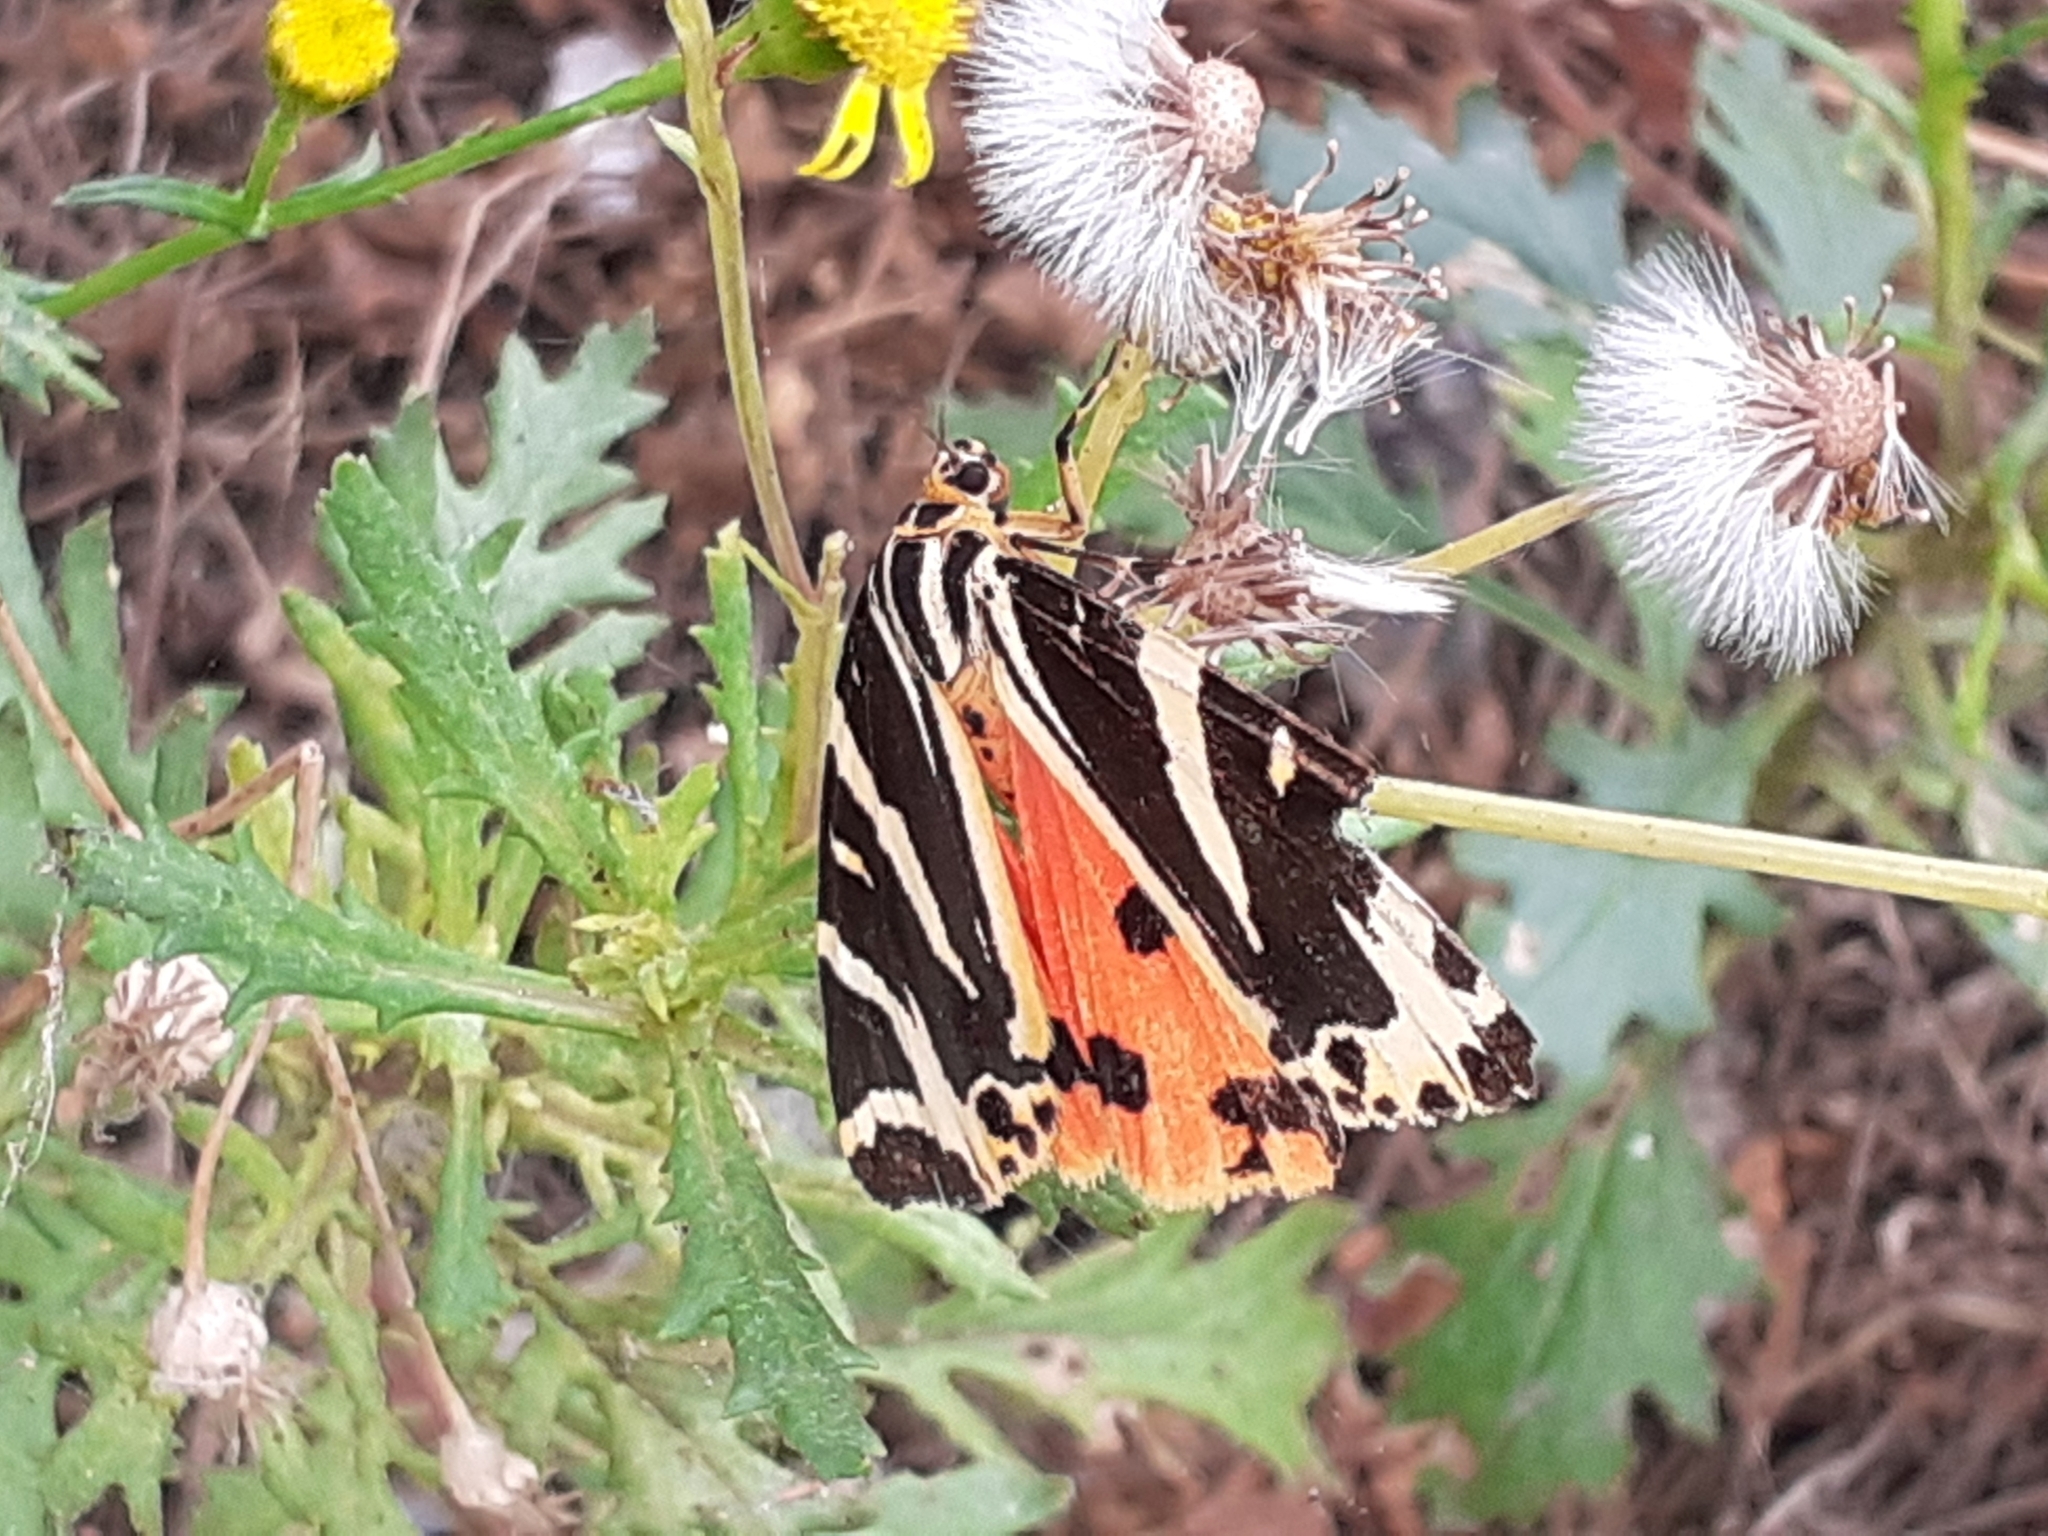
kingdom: Animalia
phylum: Arthropoda
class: Insecta
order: Lepidoptera
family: Erebidae
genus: Euplagia
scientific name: Euplagia quadripunctaria
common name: Jersey tiger
